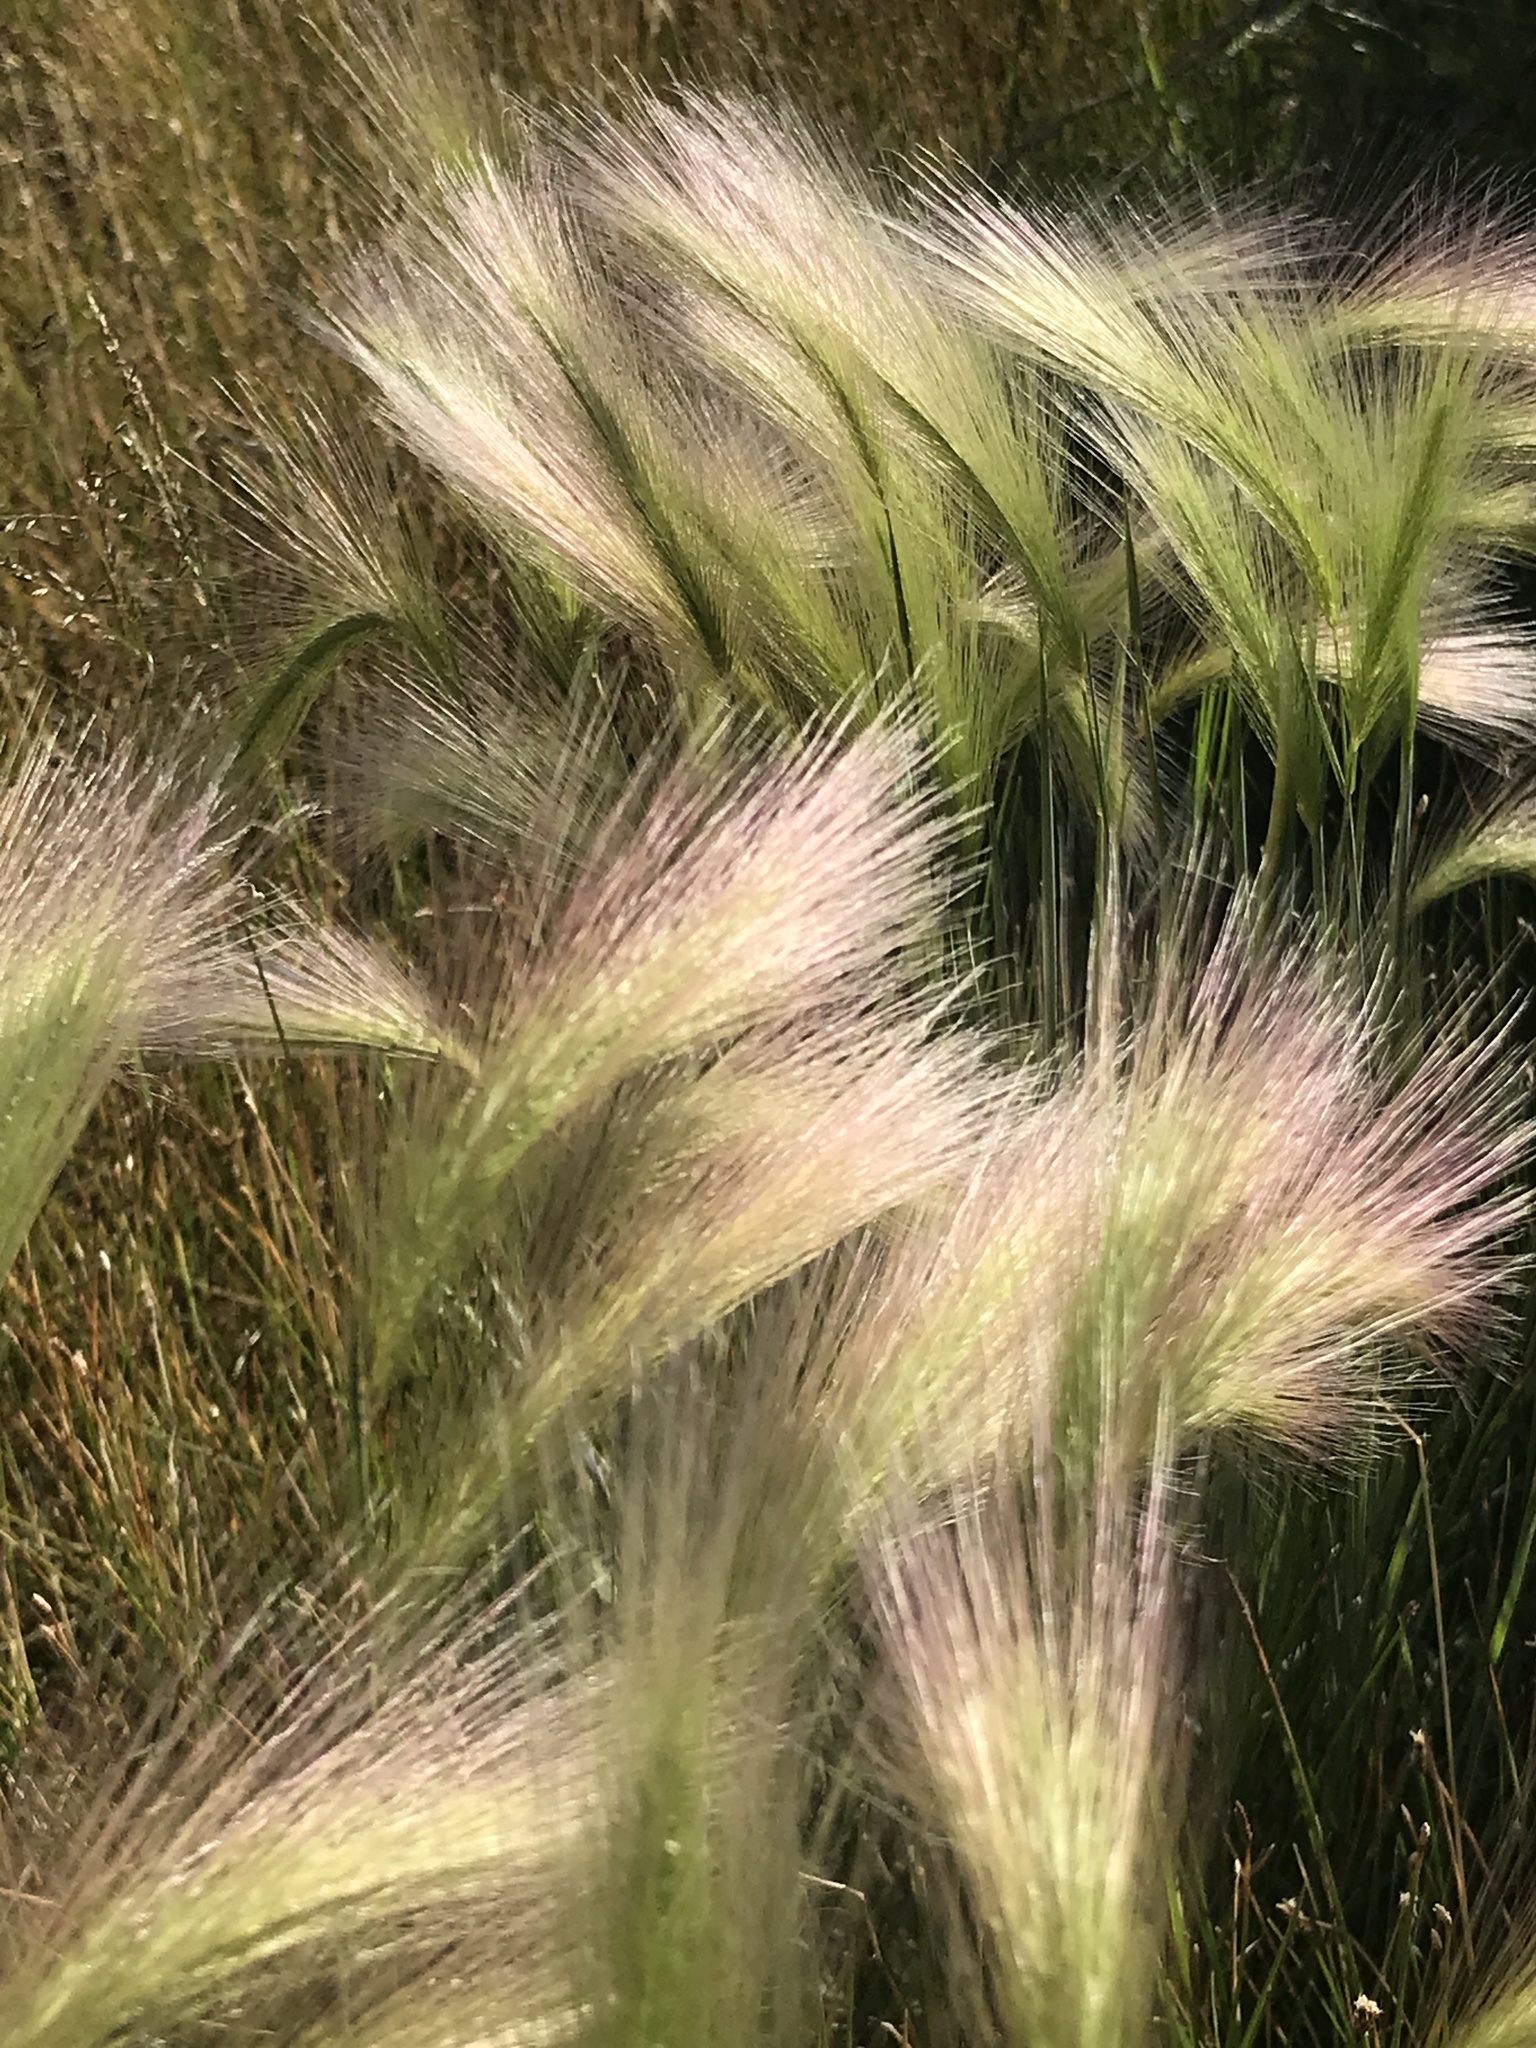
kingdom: Plantae
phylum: Tracheophyta
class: Liliopsida
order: Poales
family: Poaceae
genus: Hordeum
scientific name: Hordeum jubatum
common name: Foxtail barley
